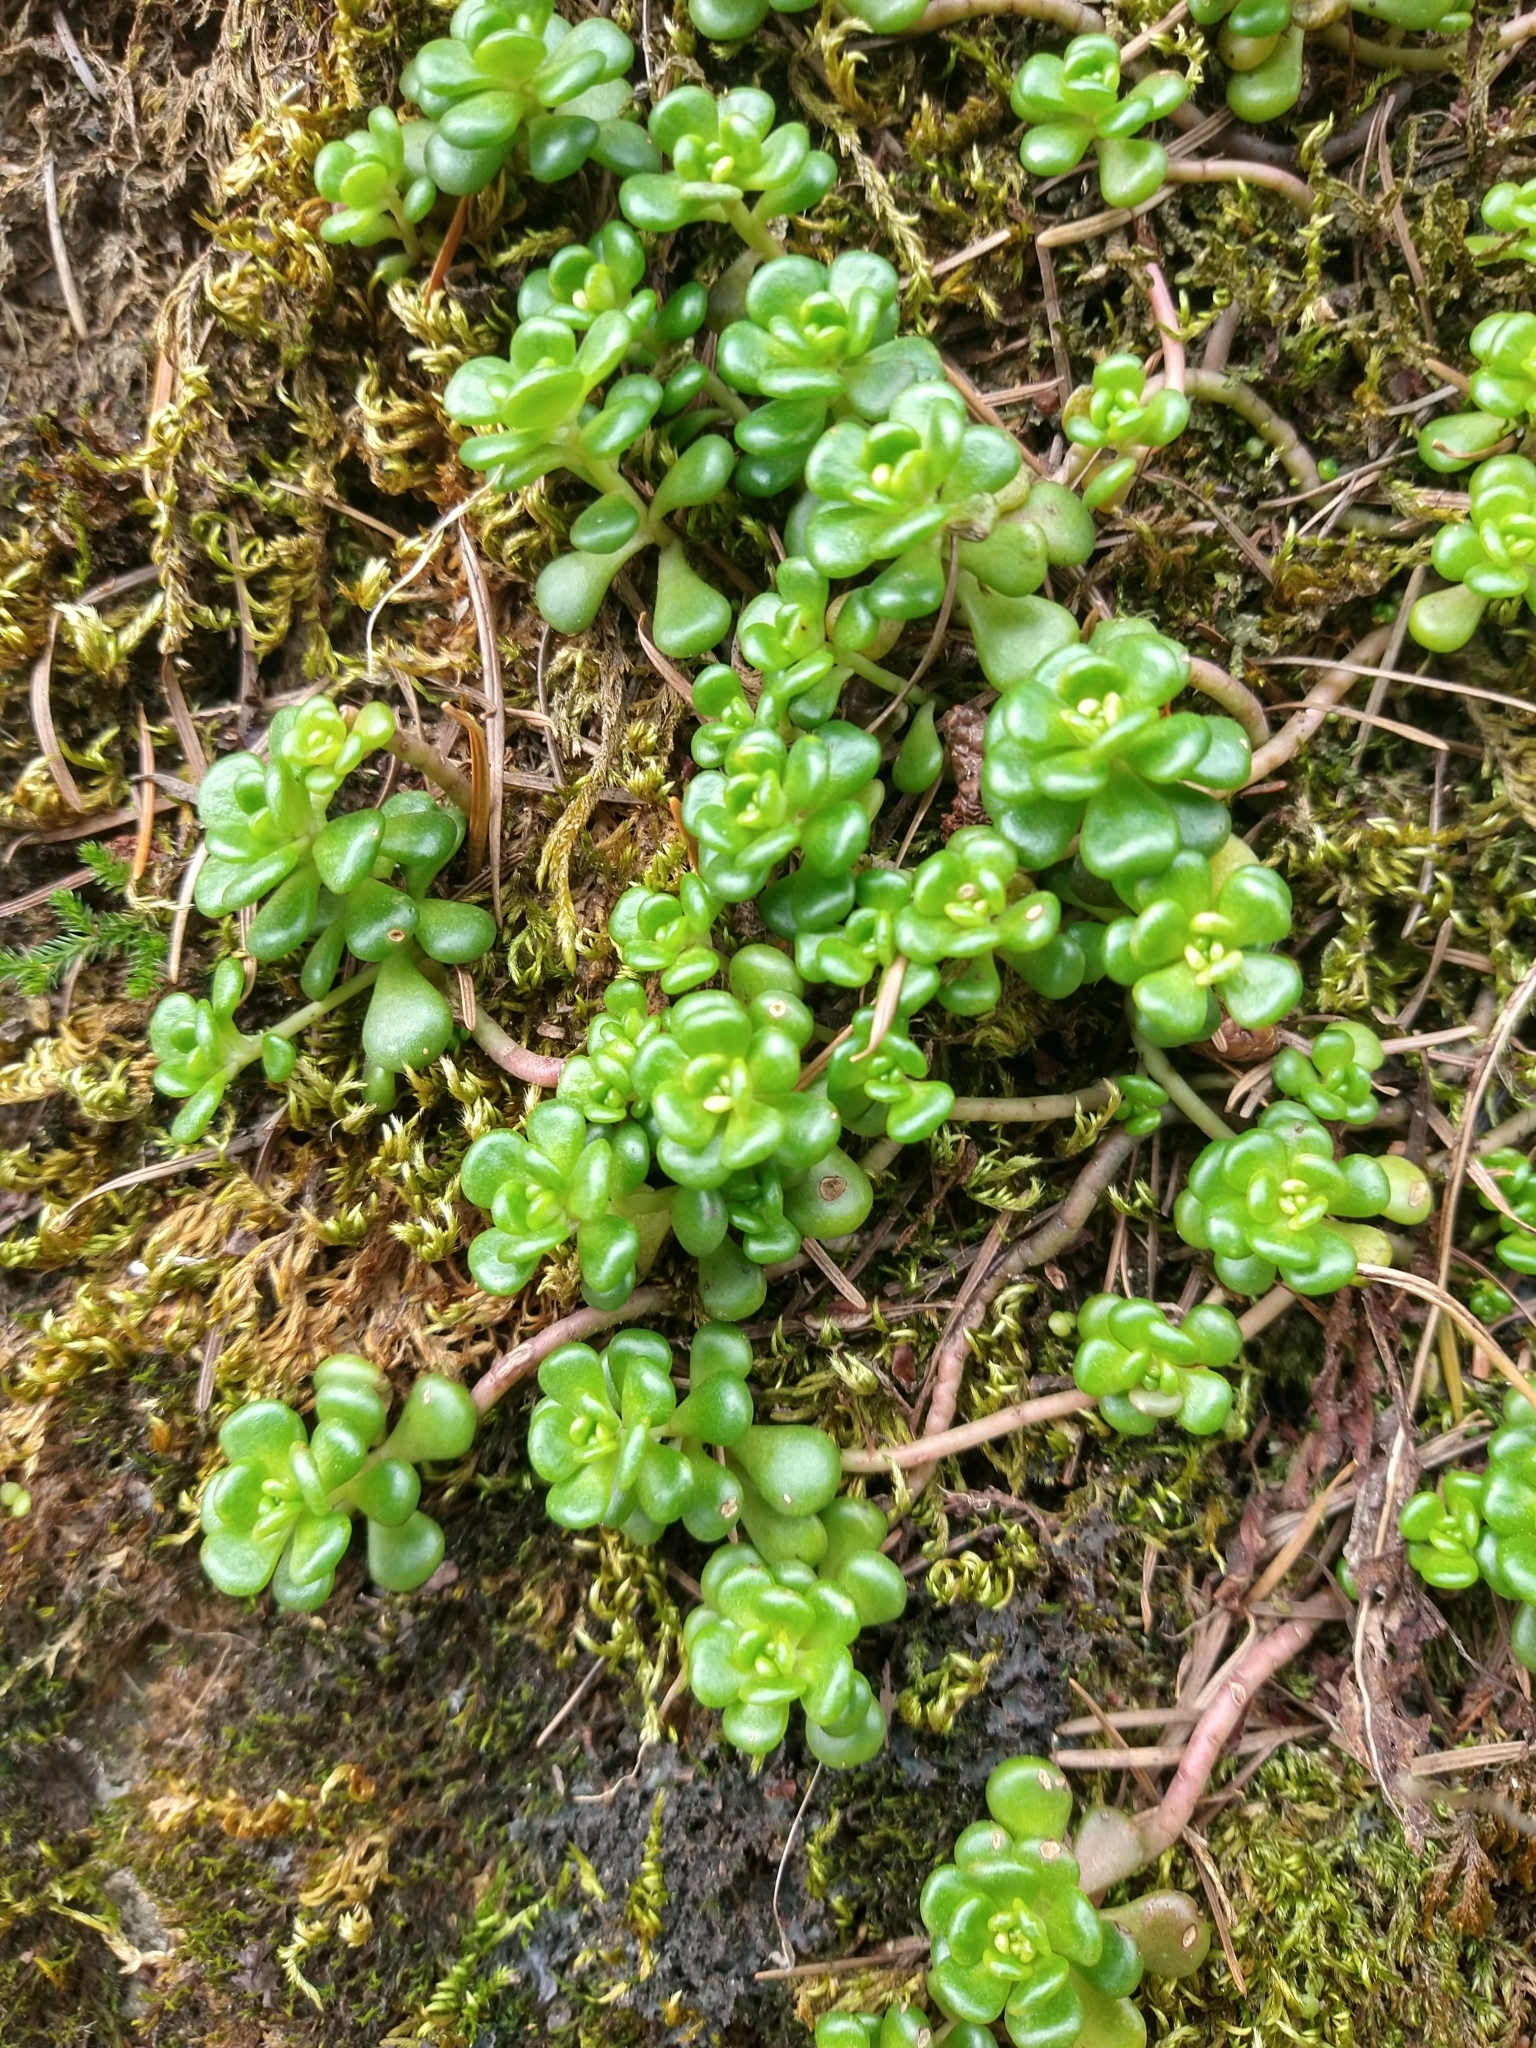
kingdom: Plantae
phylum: Tracheophyta
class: Magnoliopsida
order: Saxifragales
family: Crassulaceae
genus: Sedum
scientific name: Sedum oreganum
